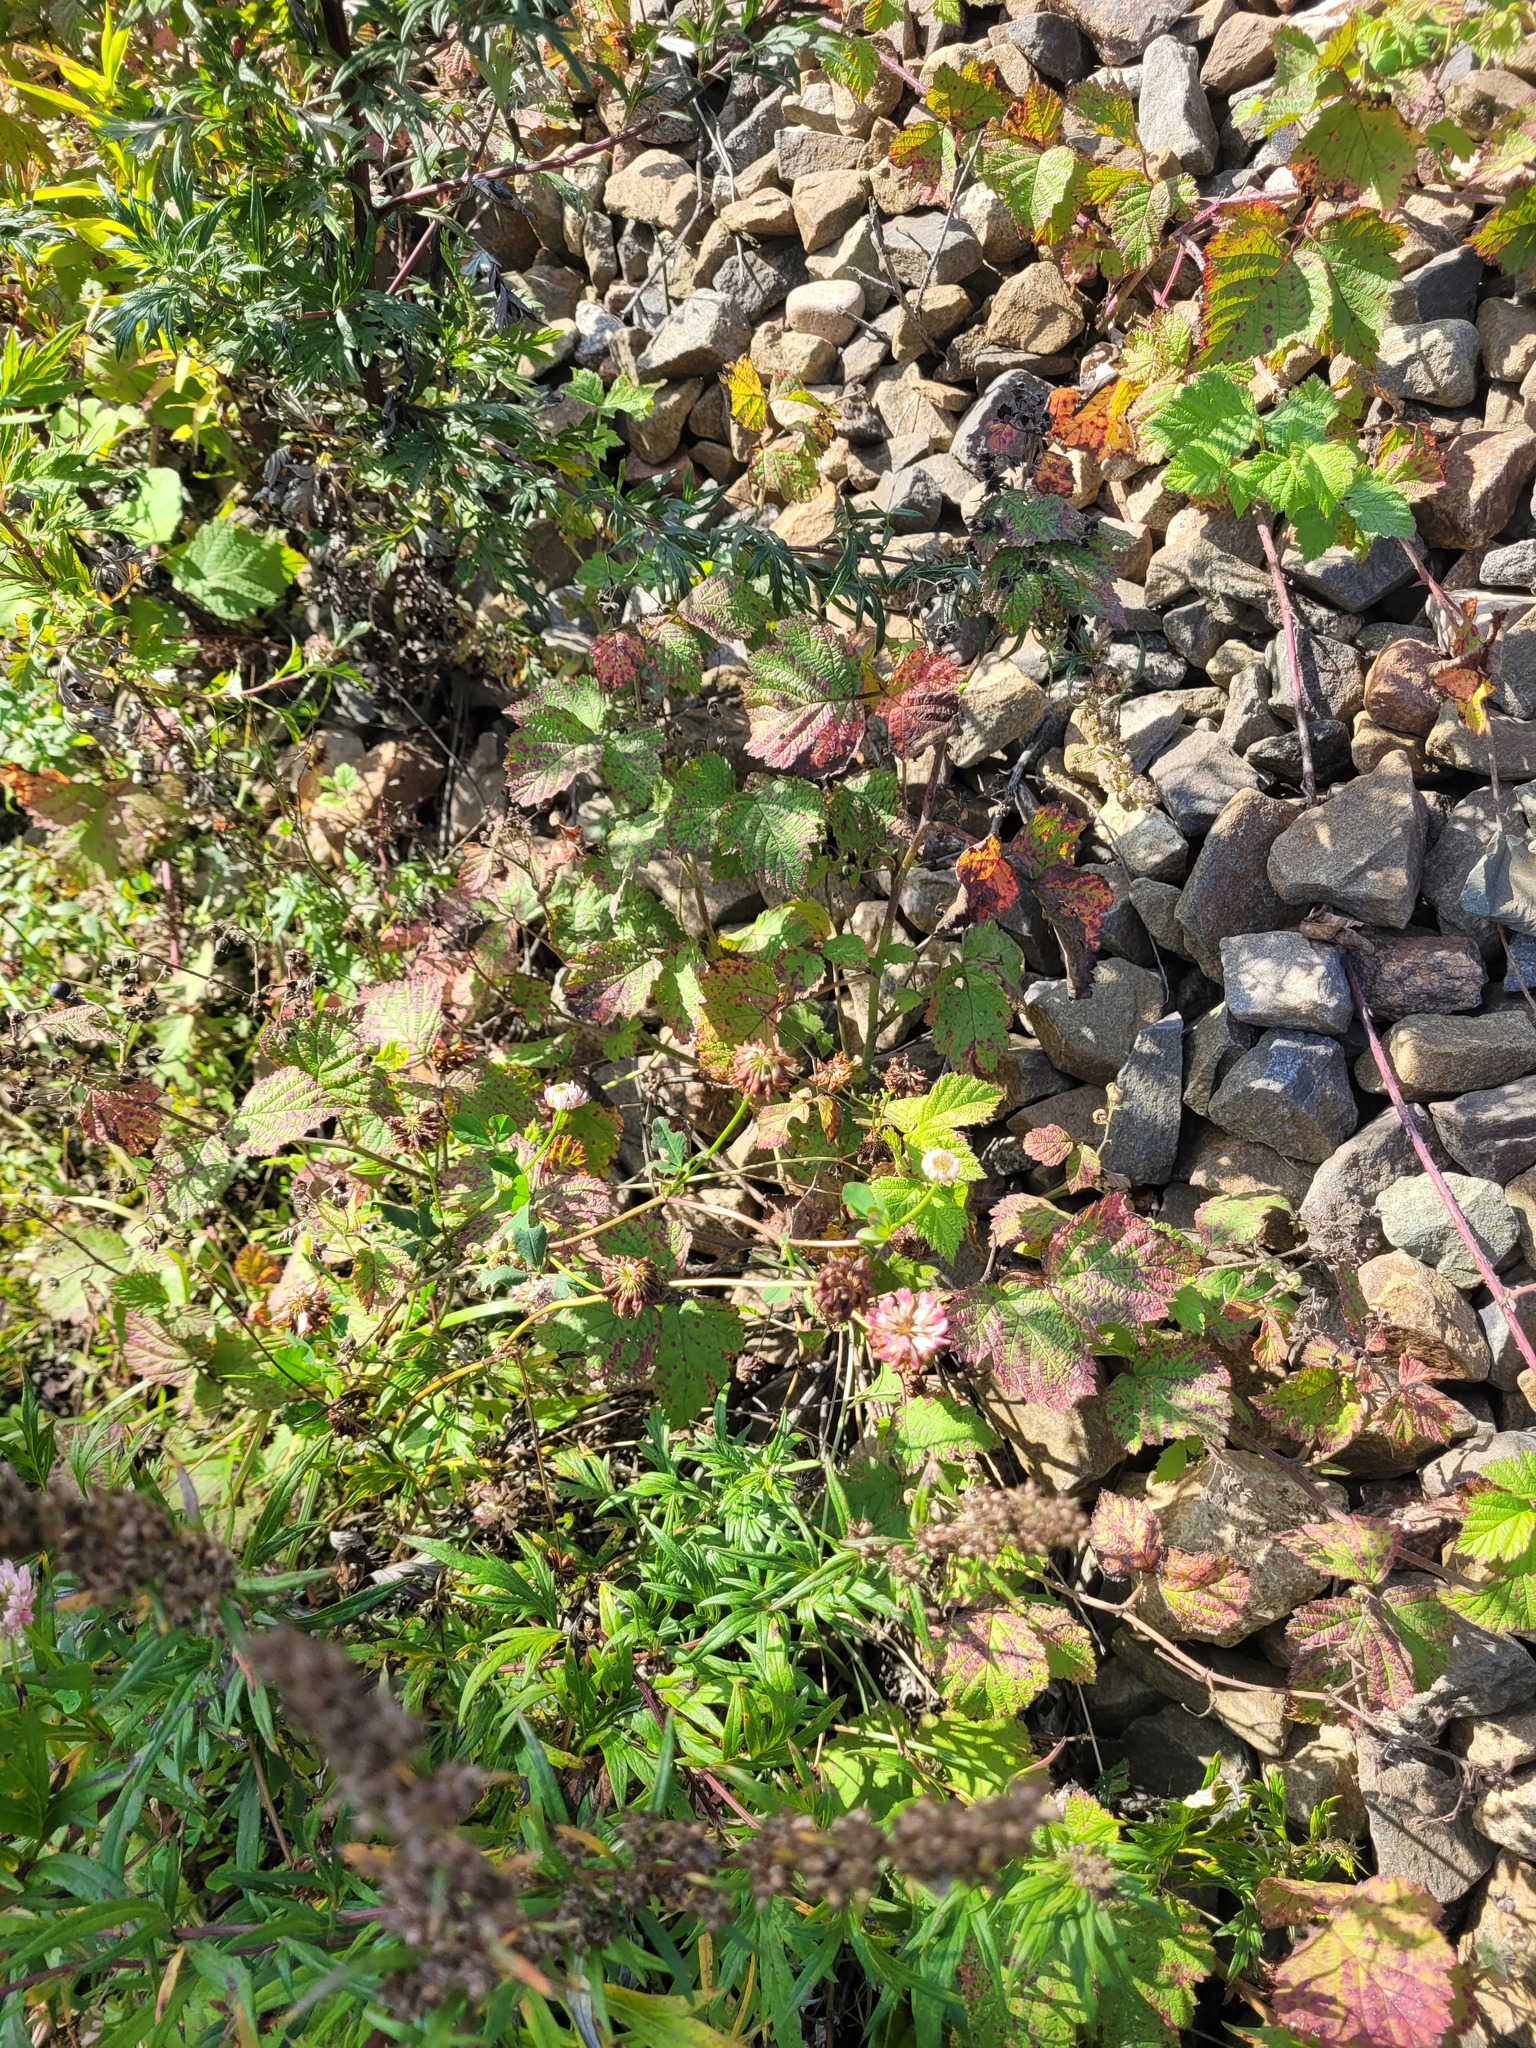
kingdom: Plantae
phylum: Tracheophyta
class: Magnoliopsida
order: Fabales
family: Fabaceae
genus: Trifolium
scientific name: Trifolium hybridum
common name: Alsike clover
